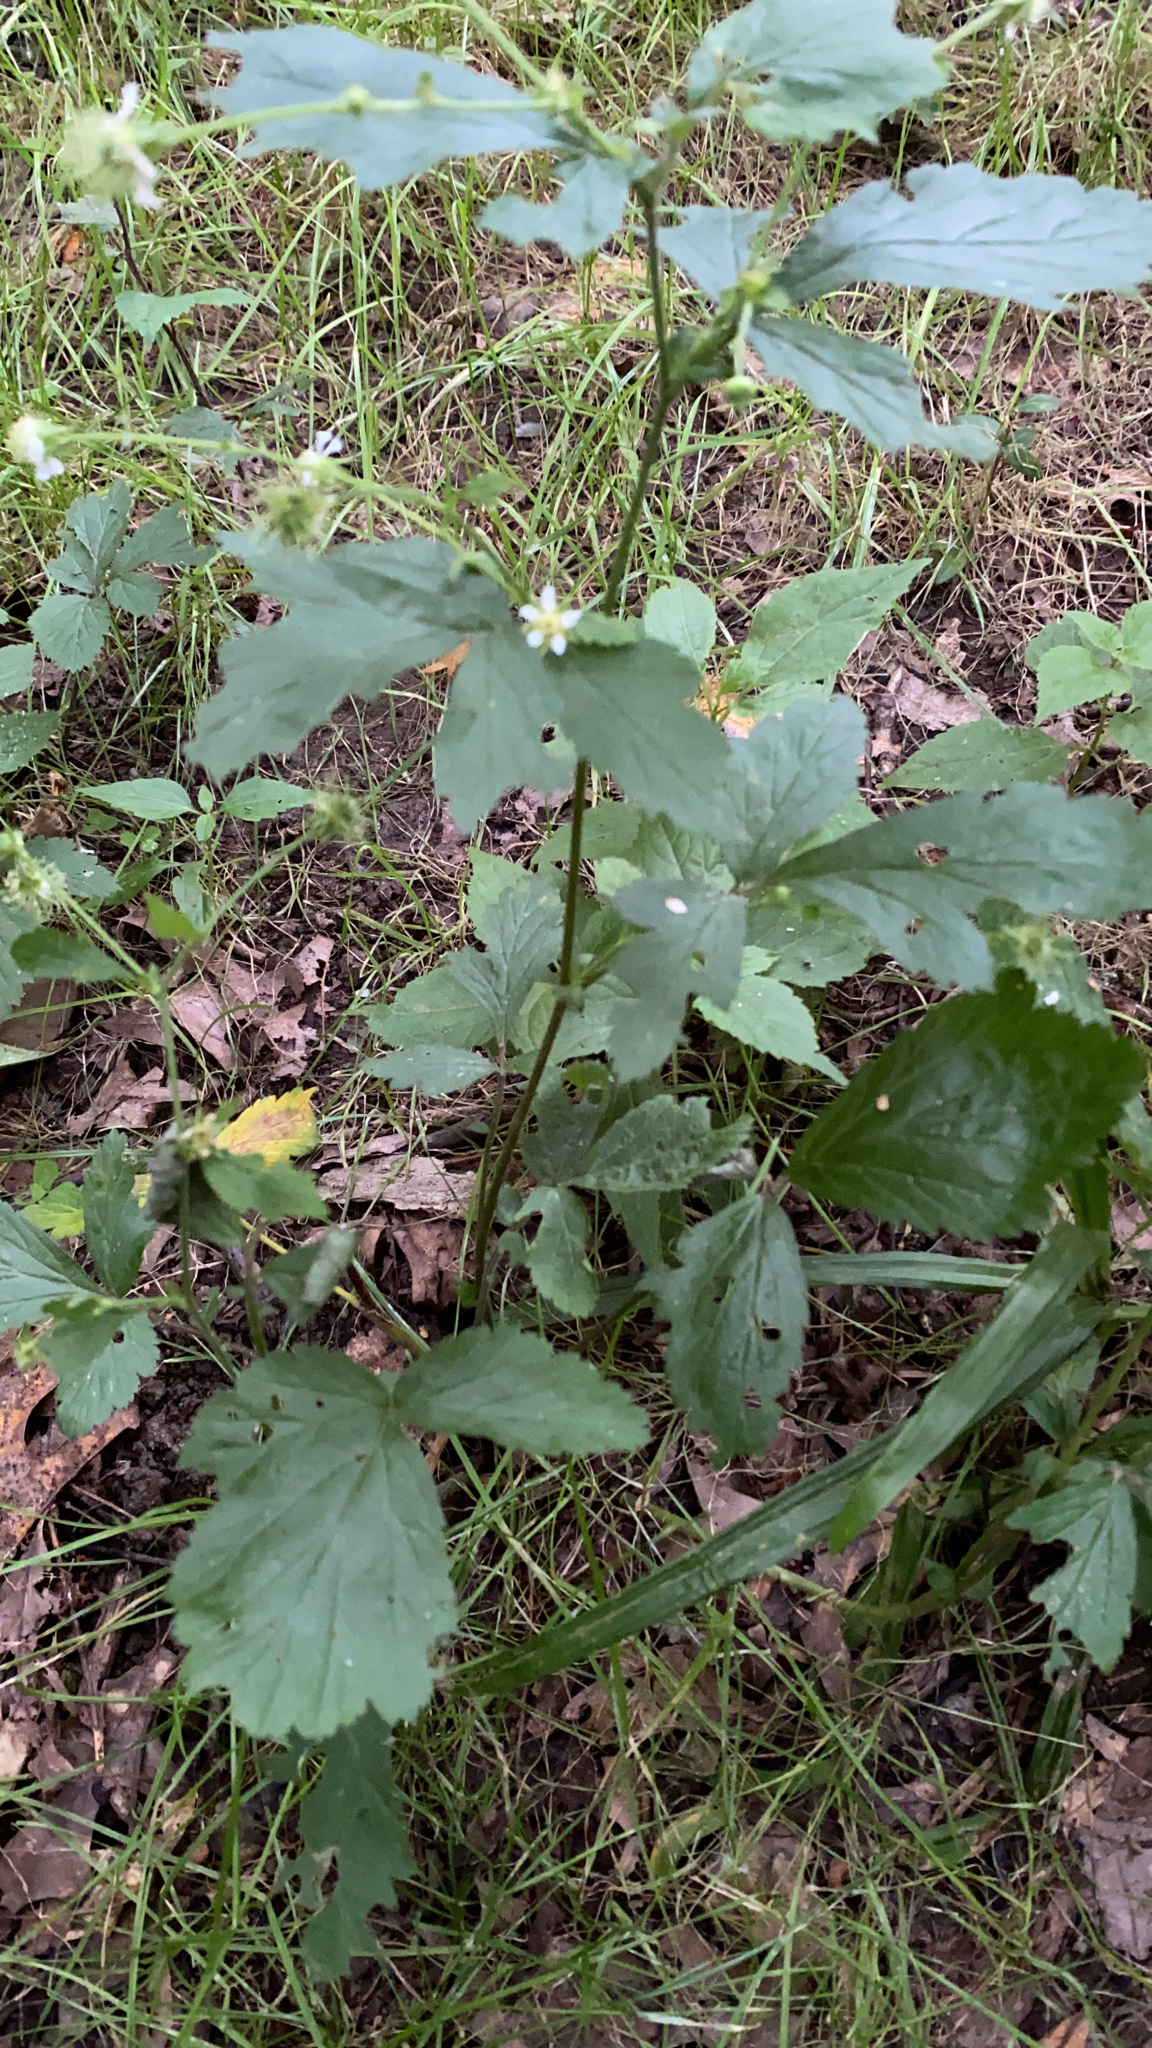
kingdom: Plantae
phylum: Tracheophyta
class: Magnoliopsida
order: Rosales
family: Rosaceae
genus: Geum
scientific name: Geum canadense
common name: White avens
